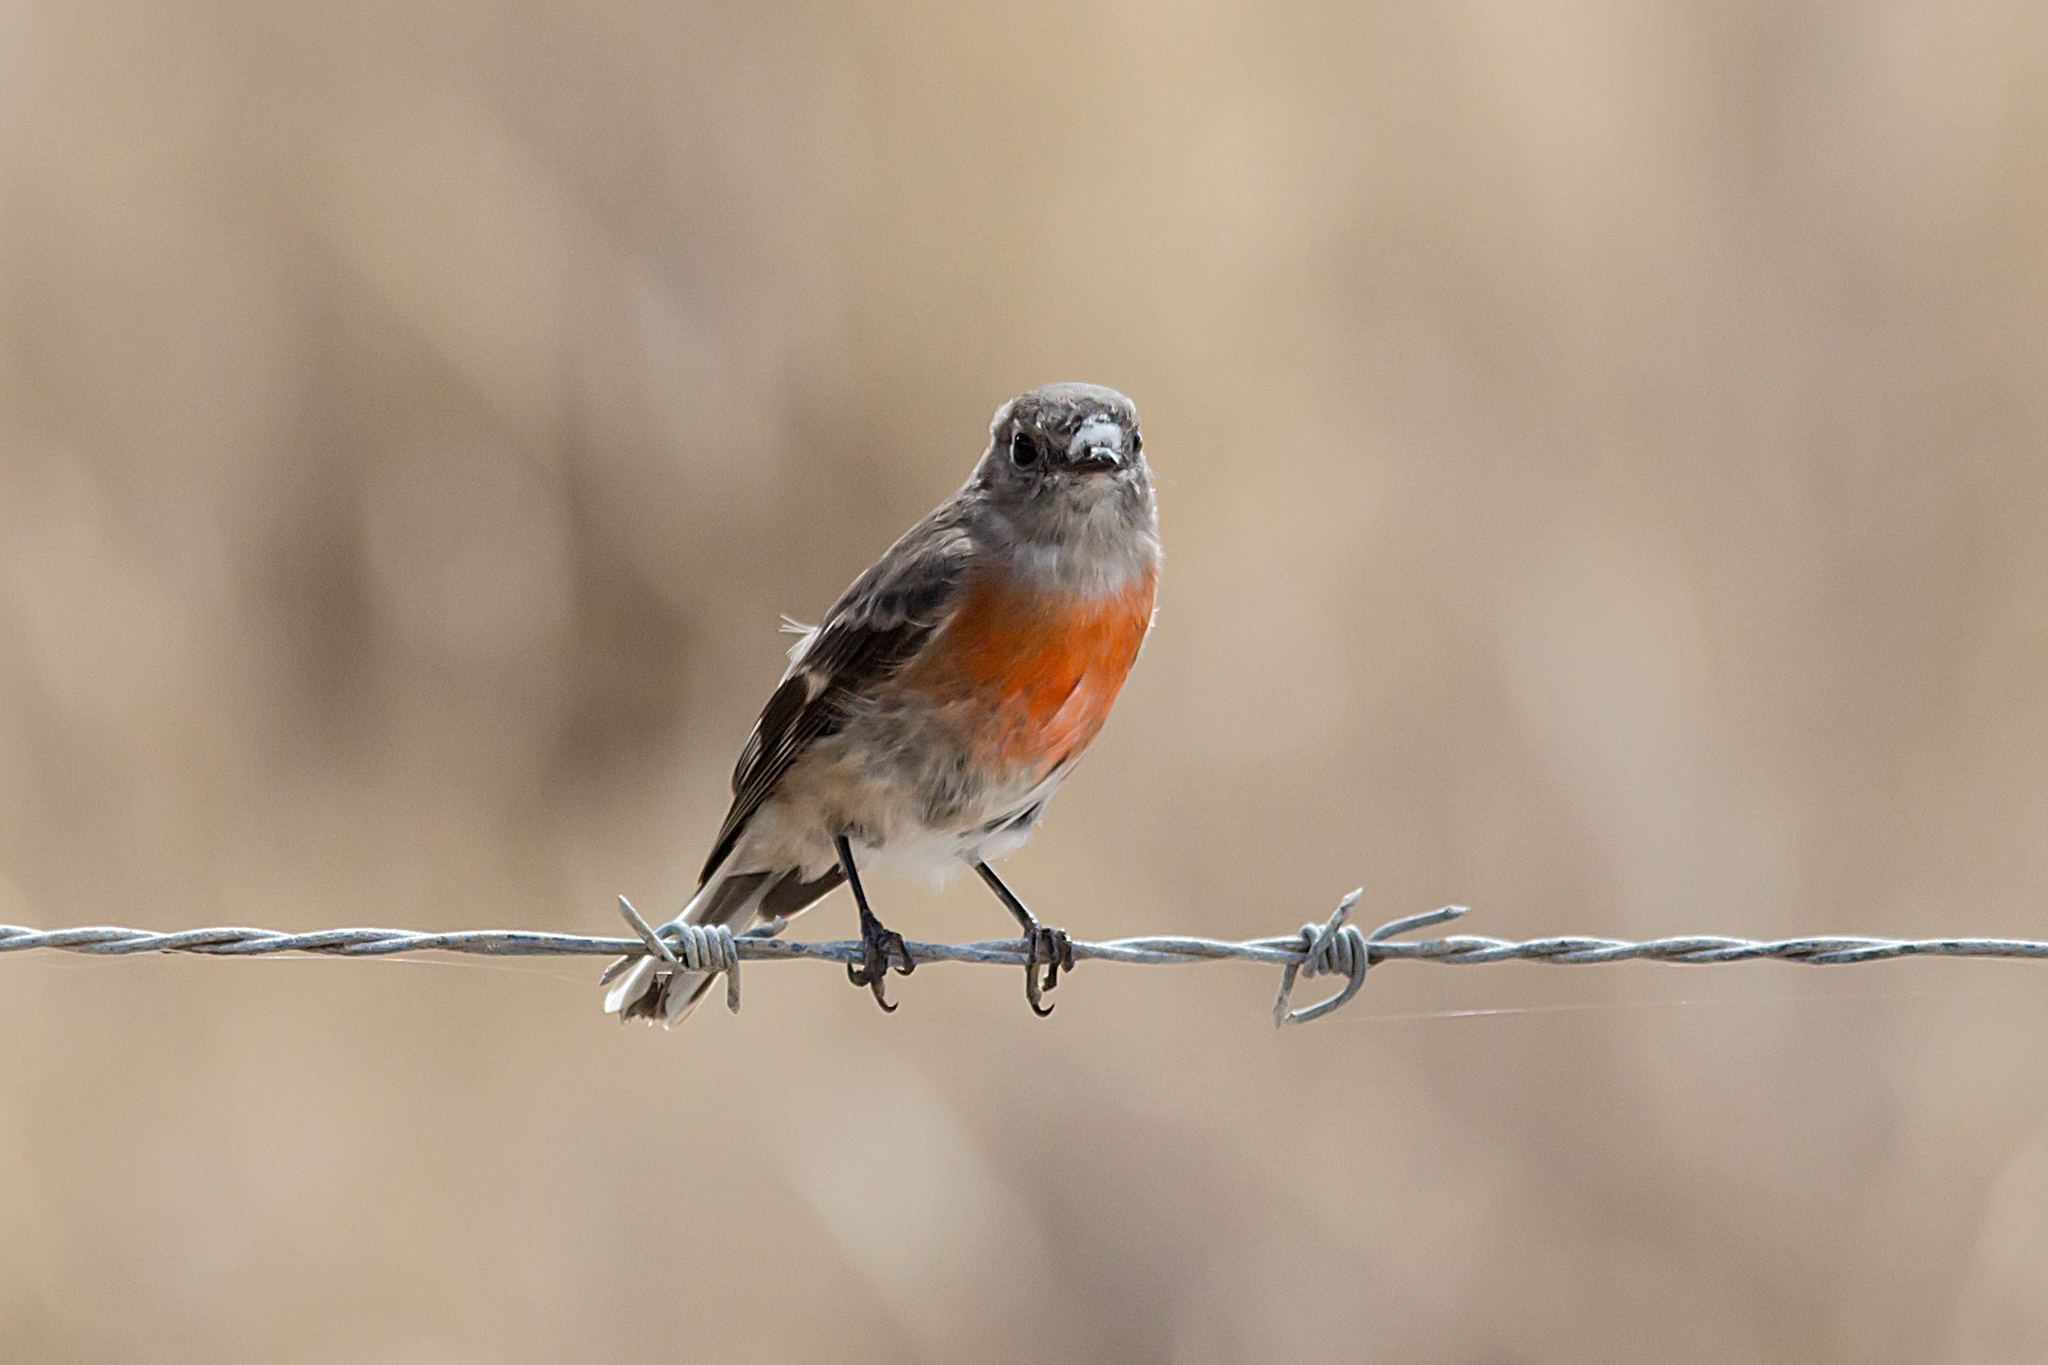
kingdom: Animalia
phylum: Chordata
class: Aves
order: Passeriformes
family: Petroicidae
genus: Petroica
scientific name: Petroica boodang
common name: Scarlet robin
